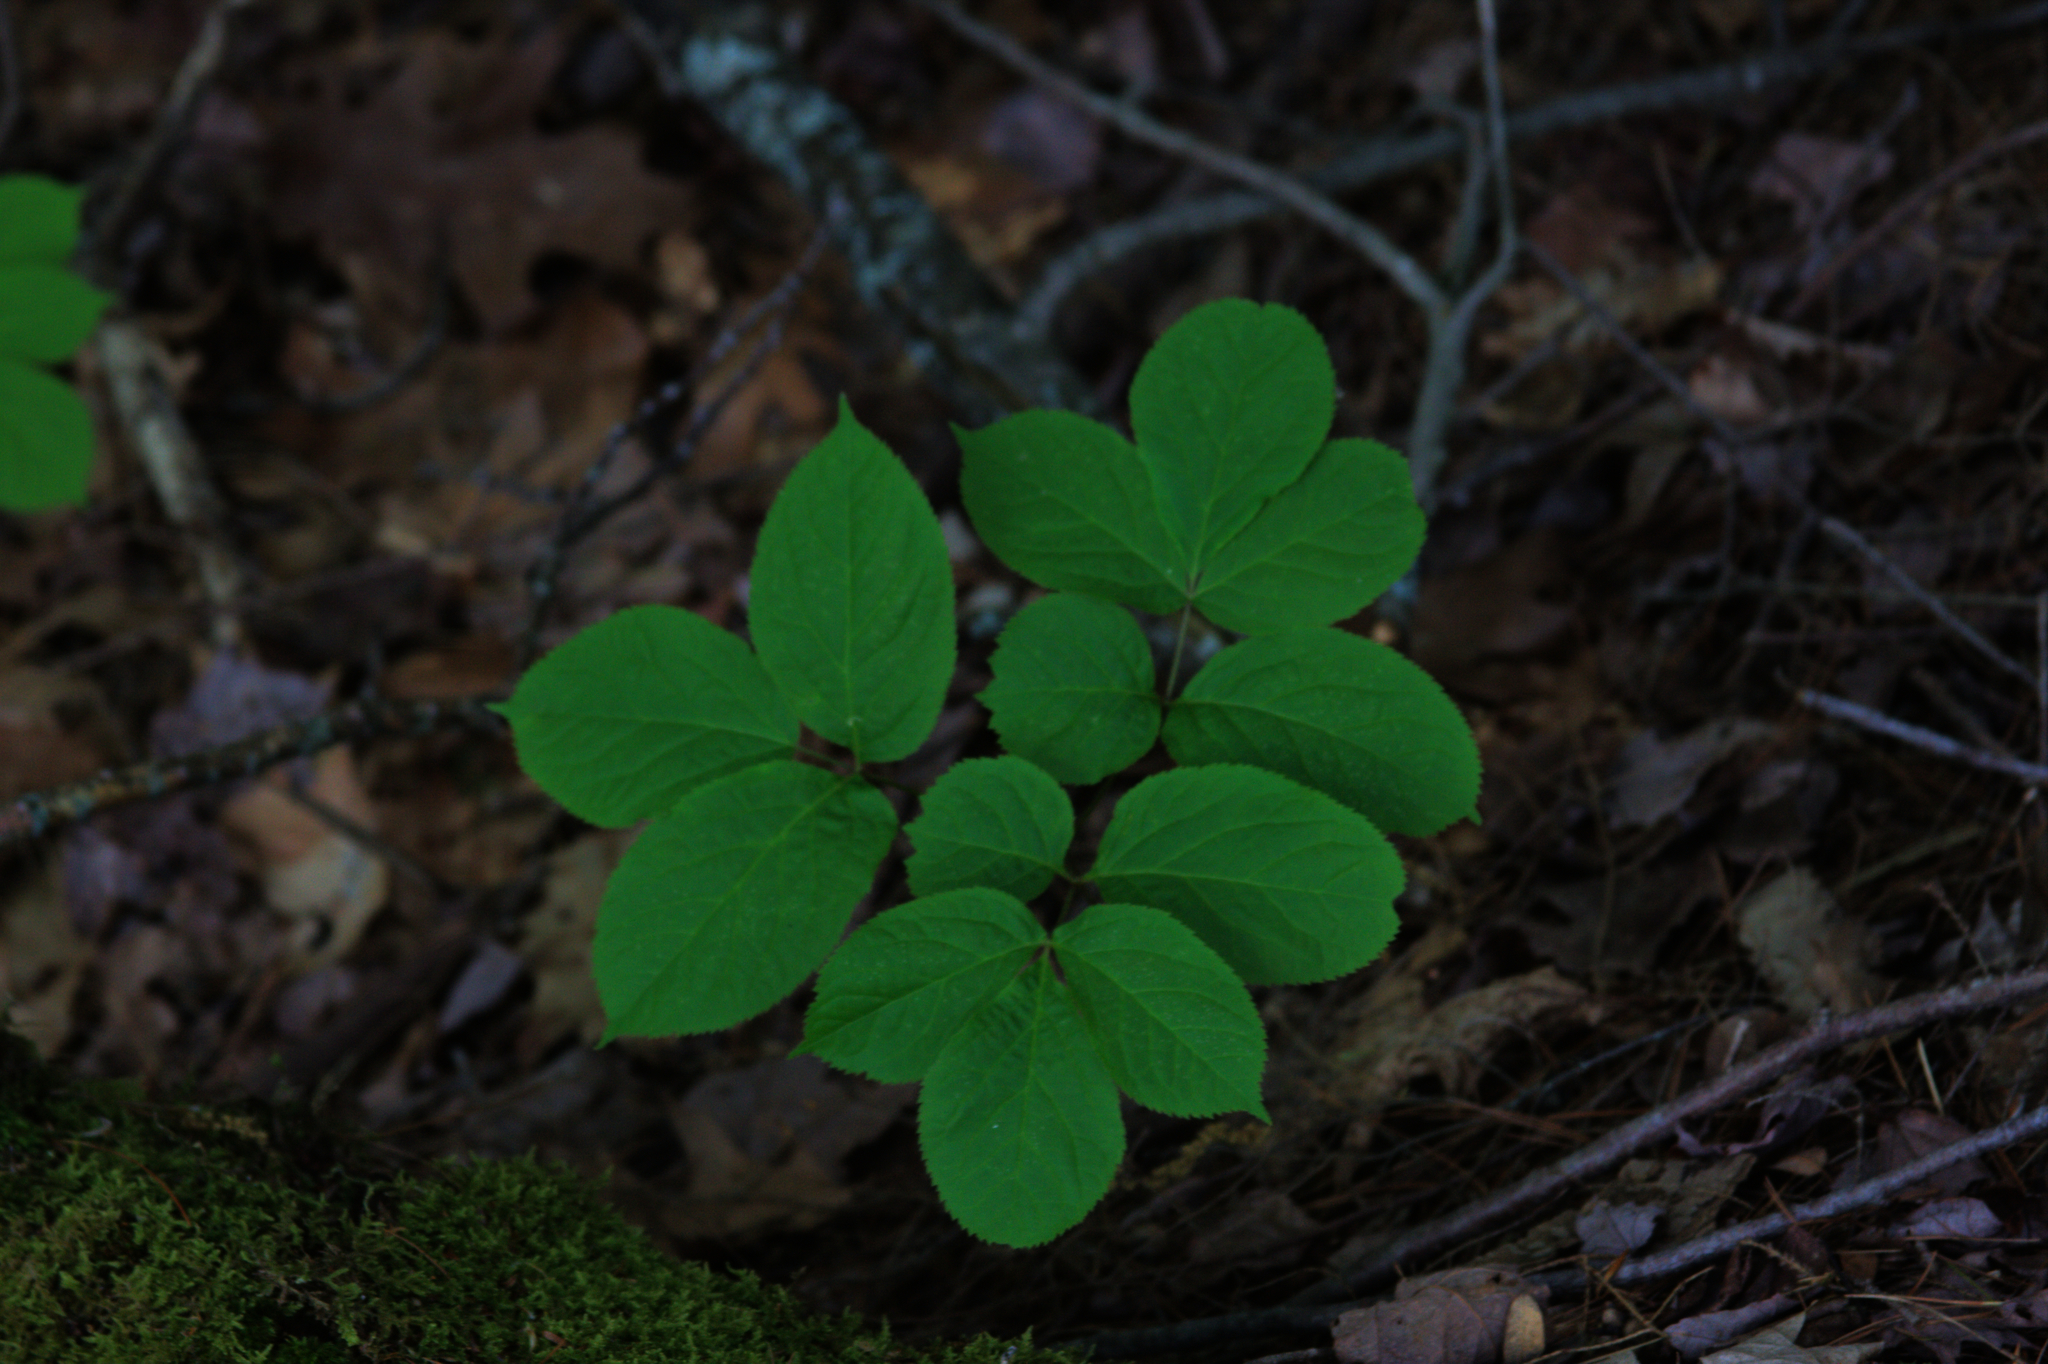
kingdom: Plantae
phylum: Tracheophyta
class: Magnoliopsida
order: Apiales
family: Araliaceae
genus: Aralia
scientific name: Aralia nudicaulis
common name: Wild sarsaparilla
